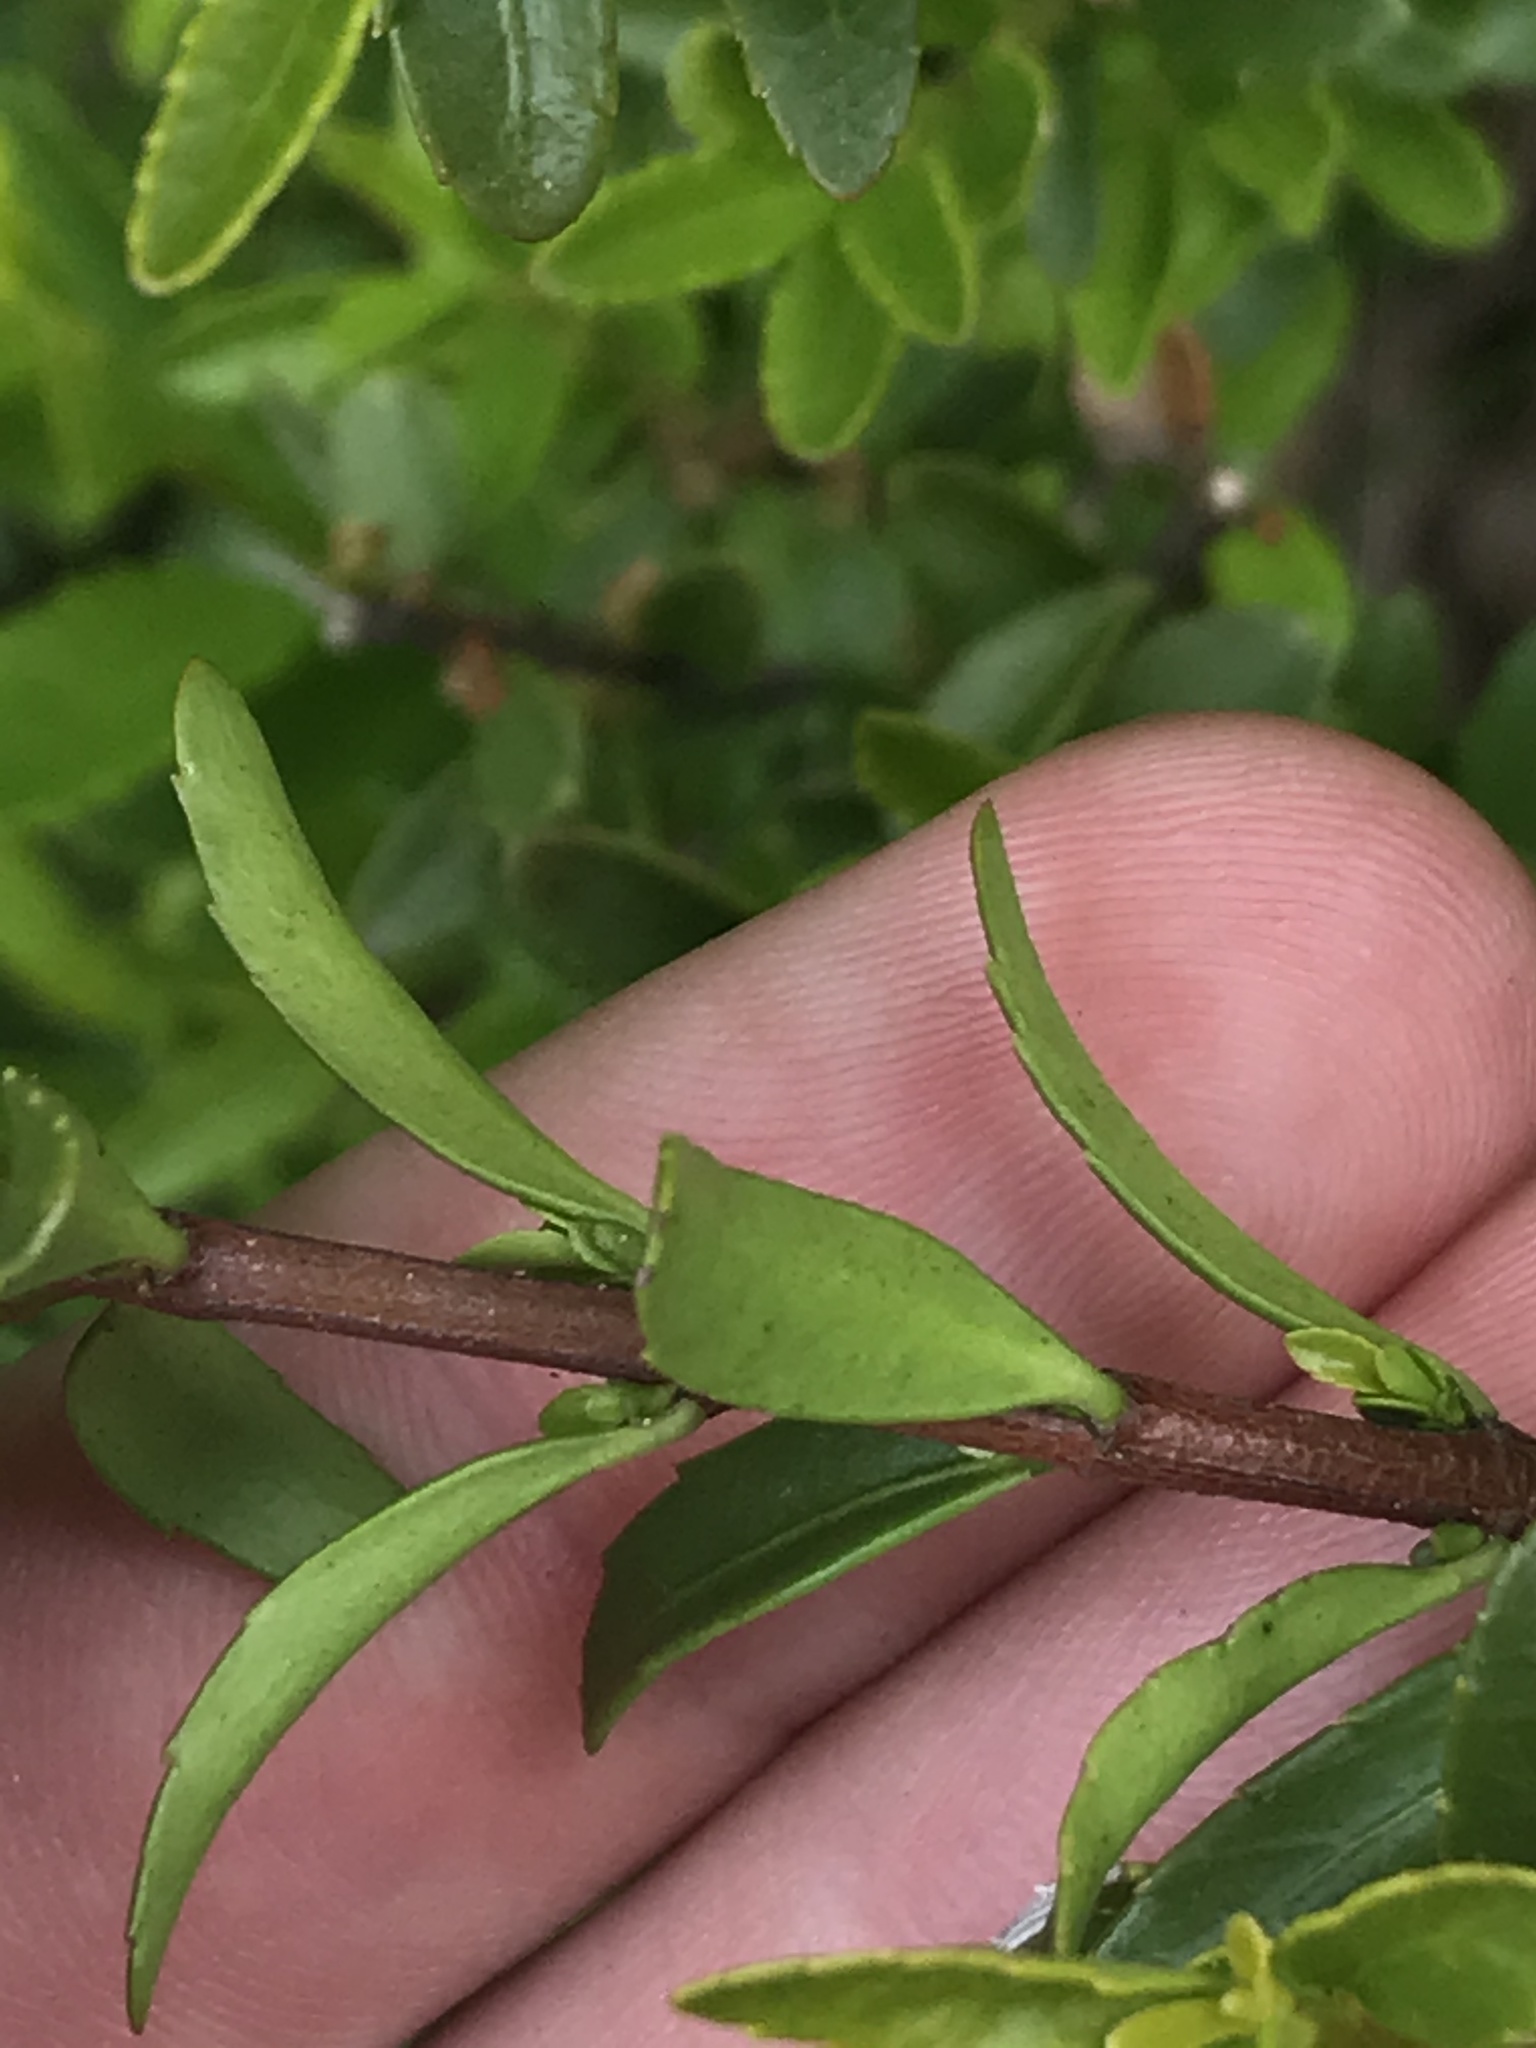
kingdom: Plantae
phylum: Tracheophyta
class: Magnoliopsida
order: Celastrales
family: Celastraceae
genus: Paxistima
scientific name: Paxistima myrsinites
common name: Mountain-lover
